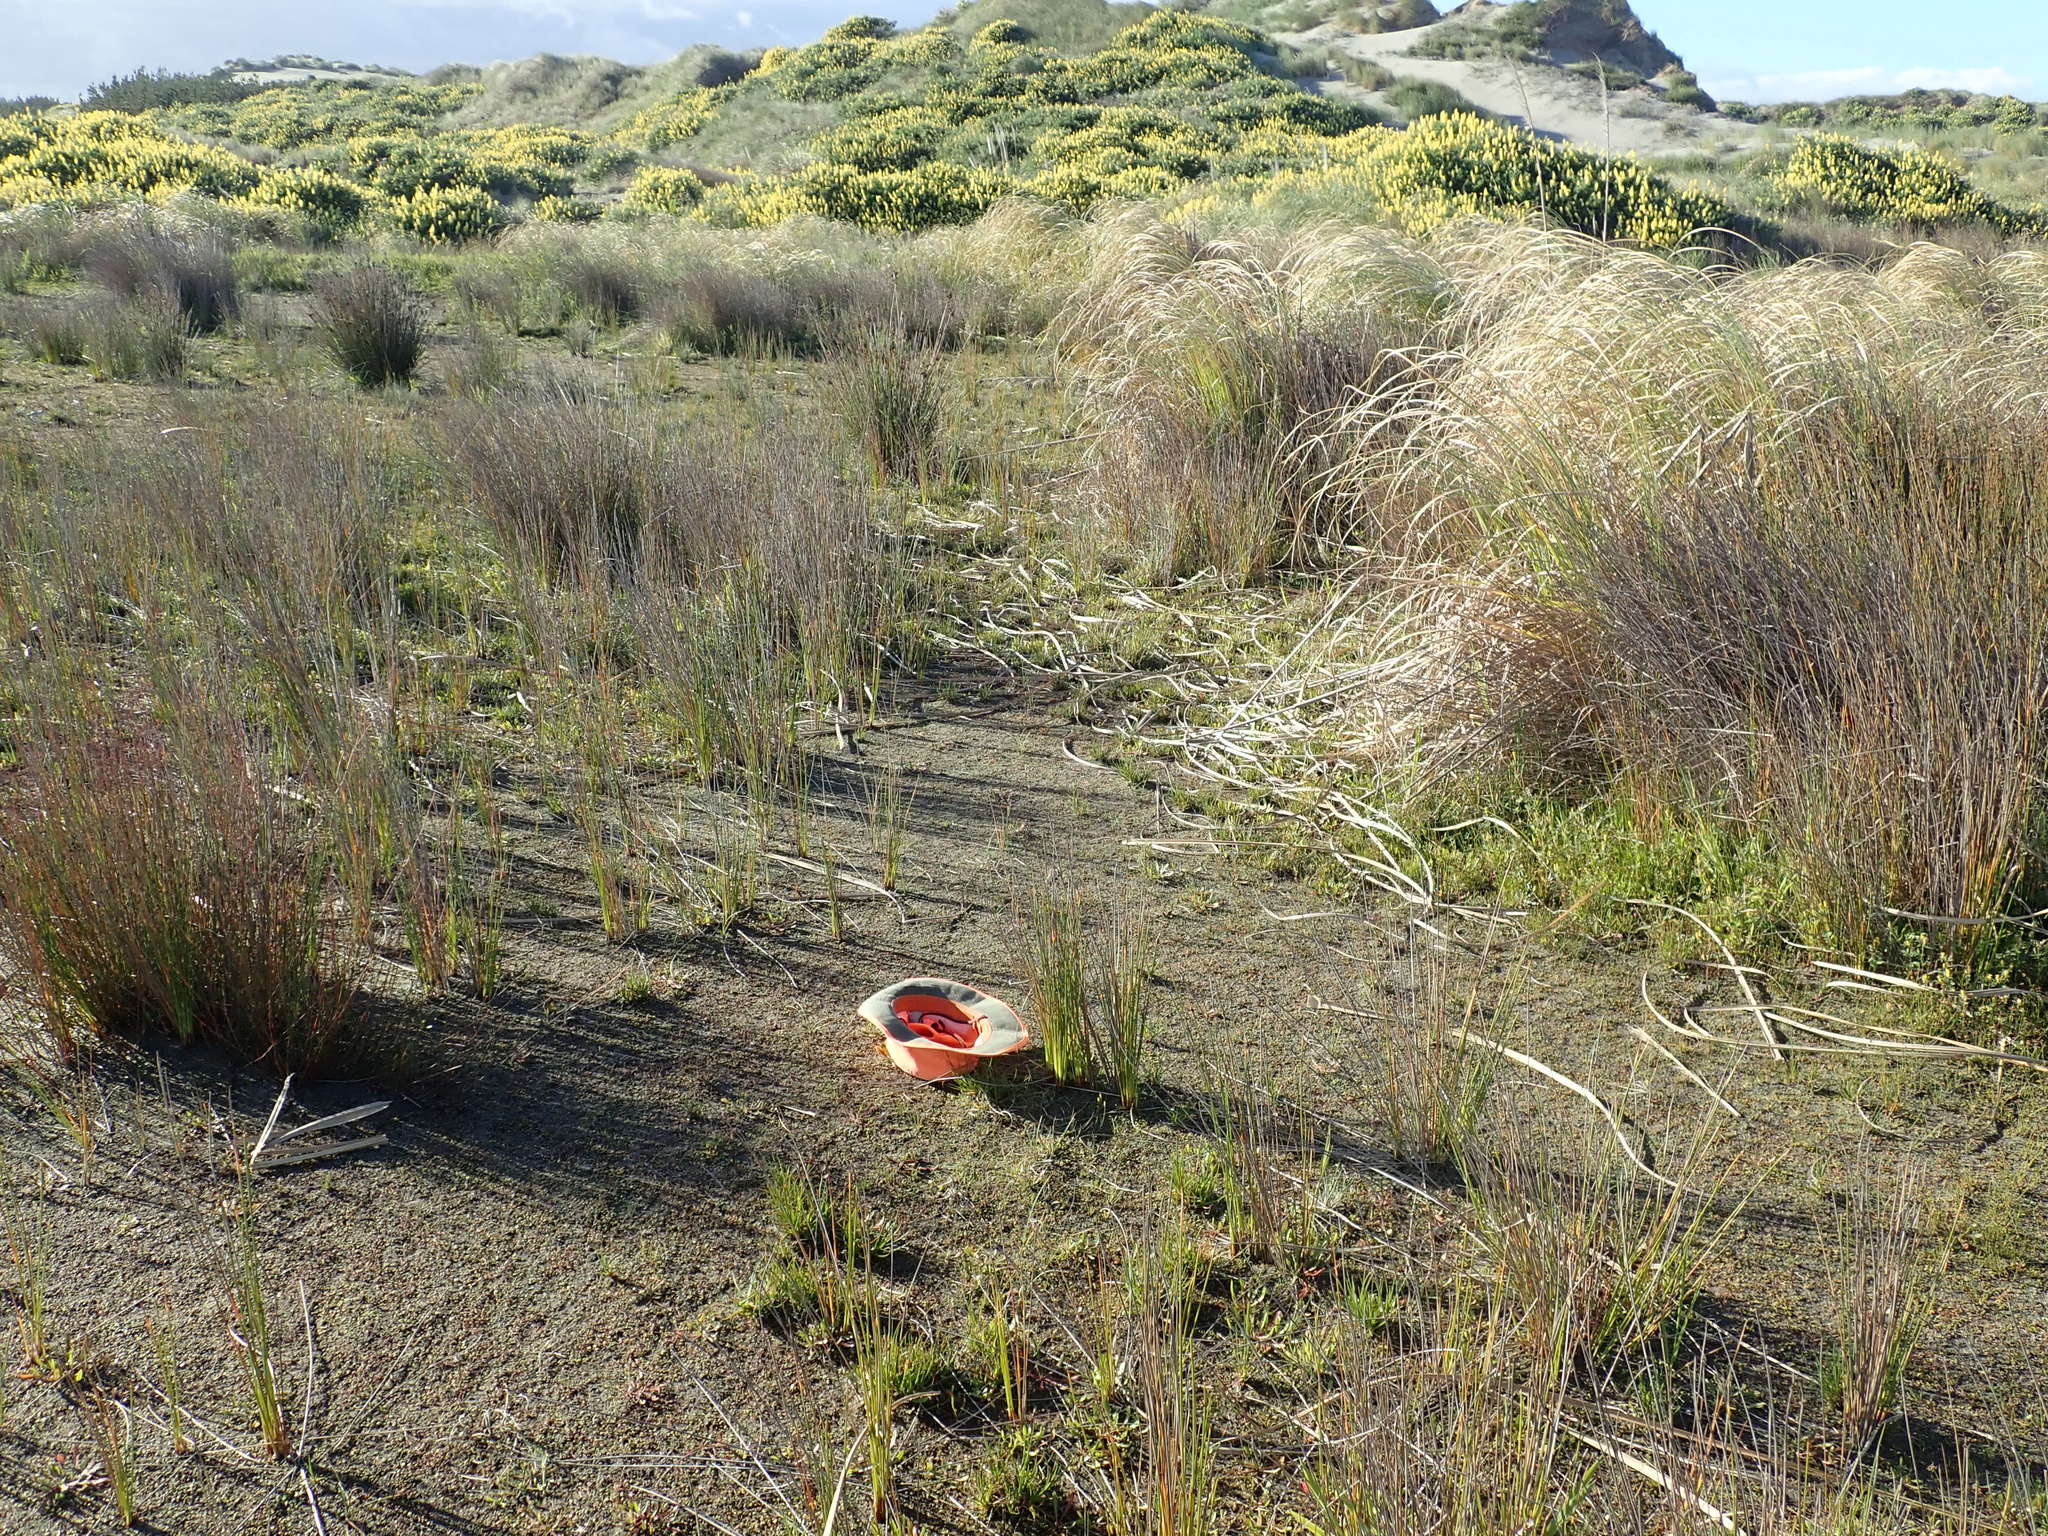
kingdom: Plantae
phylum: Tracheophyta
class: Magnoliopsida
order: Ranunculales
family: Ranunculaceae
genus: Ranunculus
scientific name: Ranunculus acaulis
